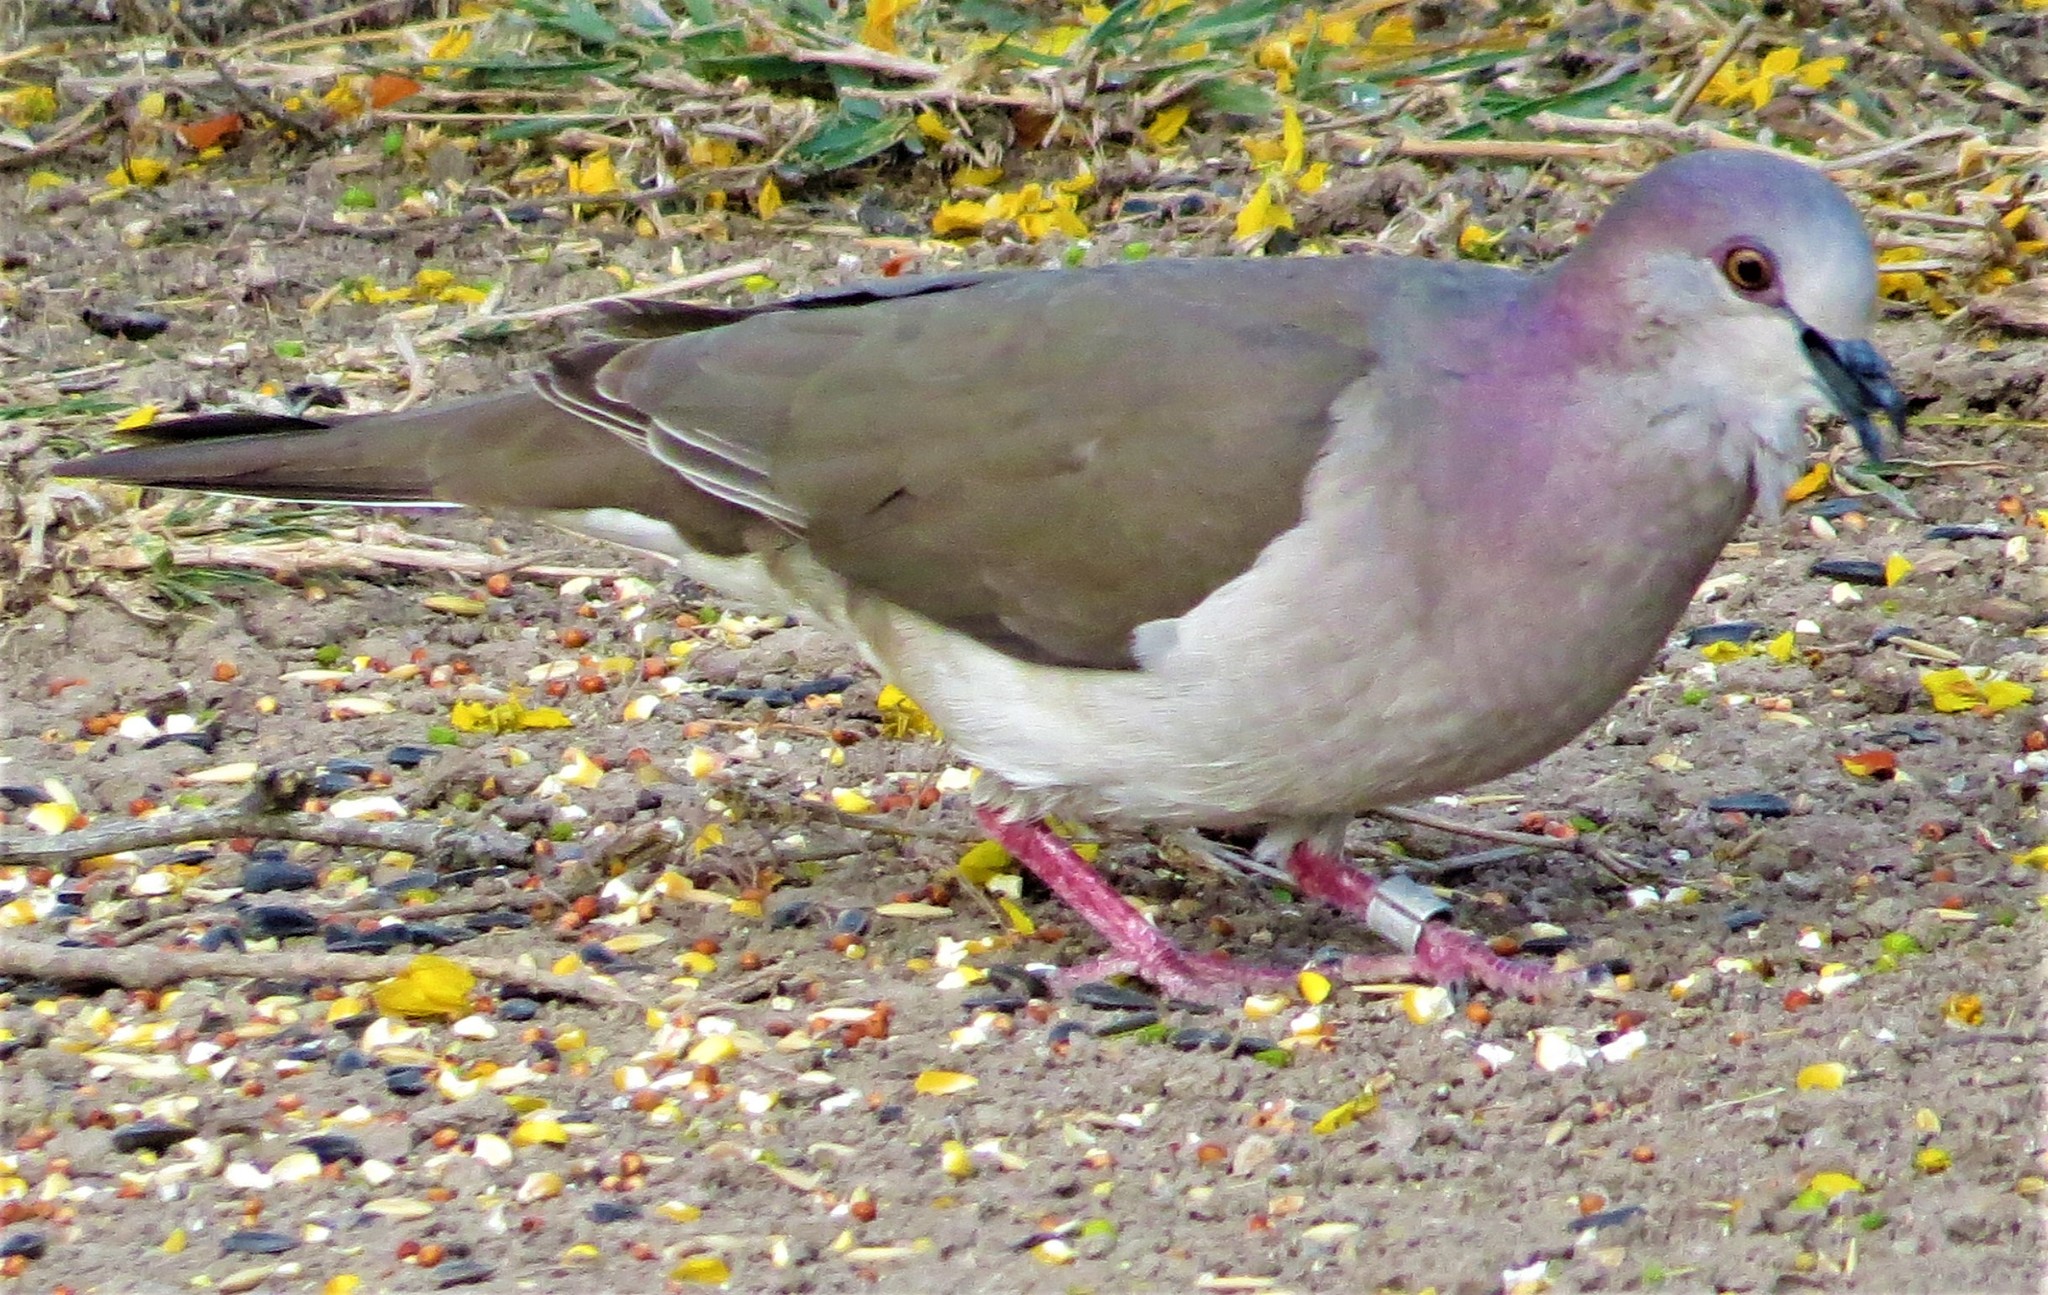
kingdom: Animalia
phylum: Chordata
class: Aves
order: Columbiformes
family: Columbidae
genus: Leptotila
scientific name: Leptotila verreauxi
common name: White-tipped dove
